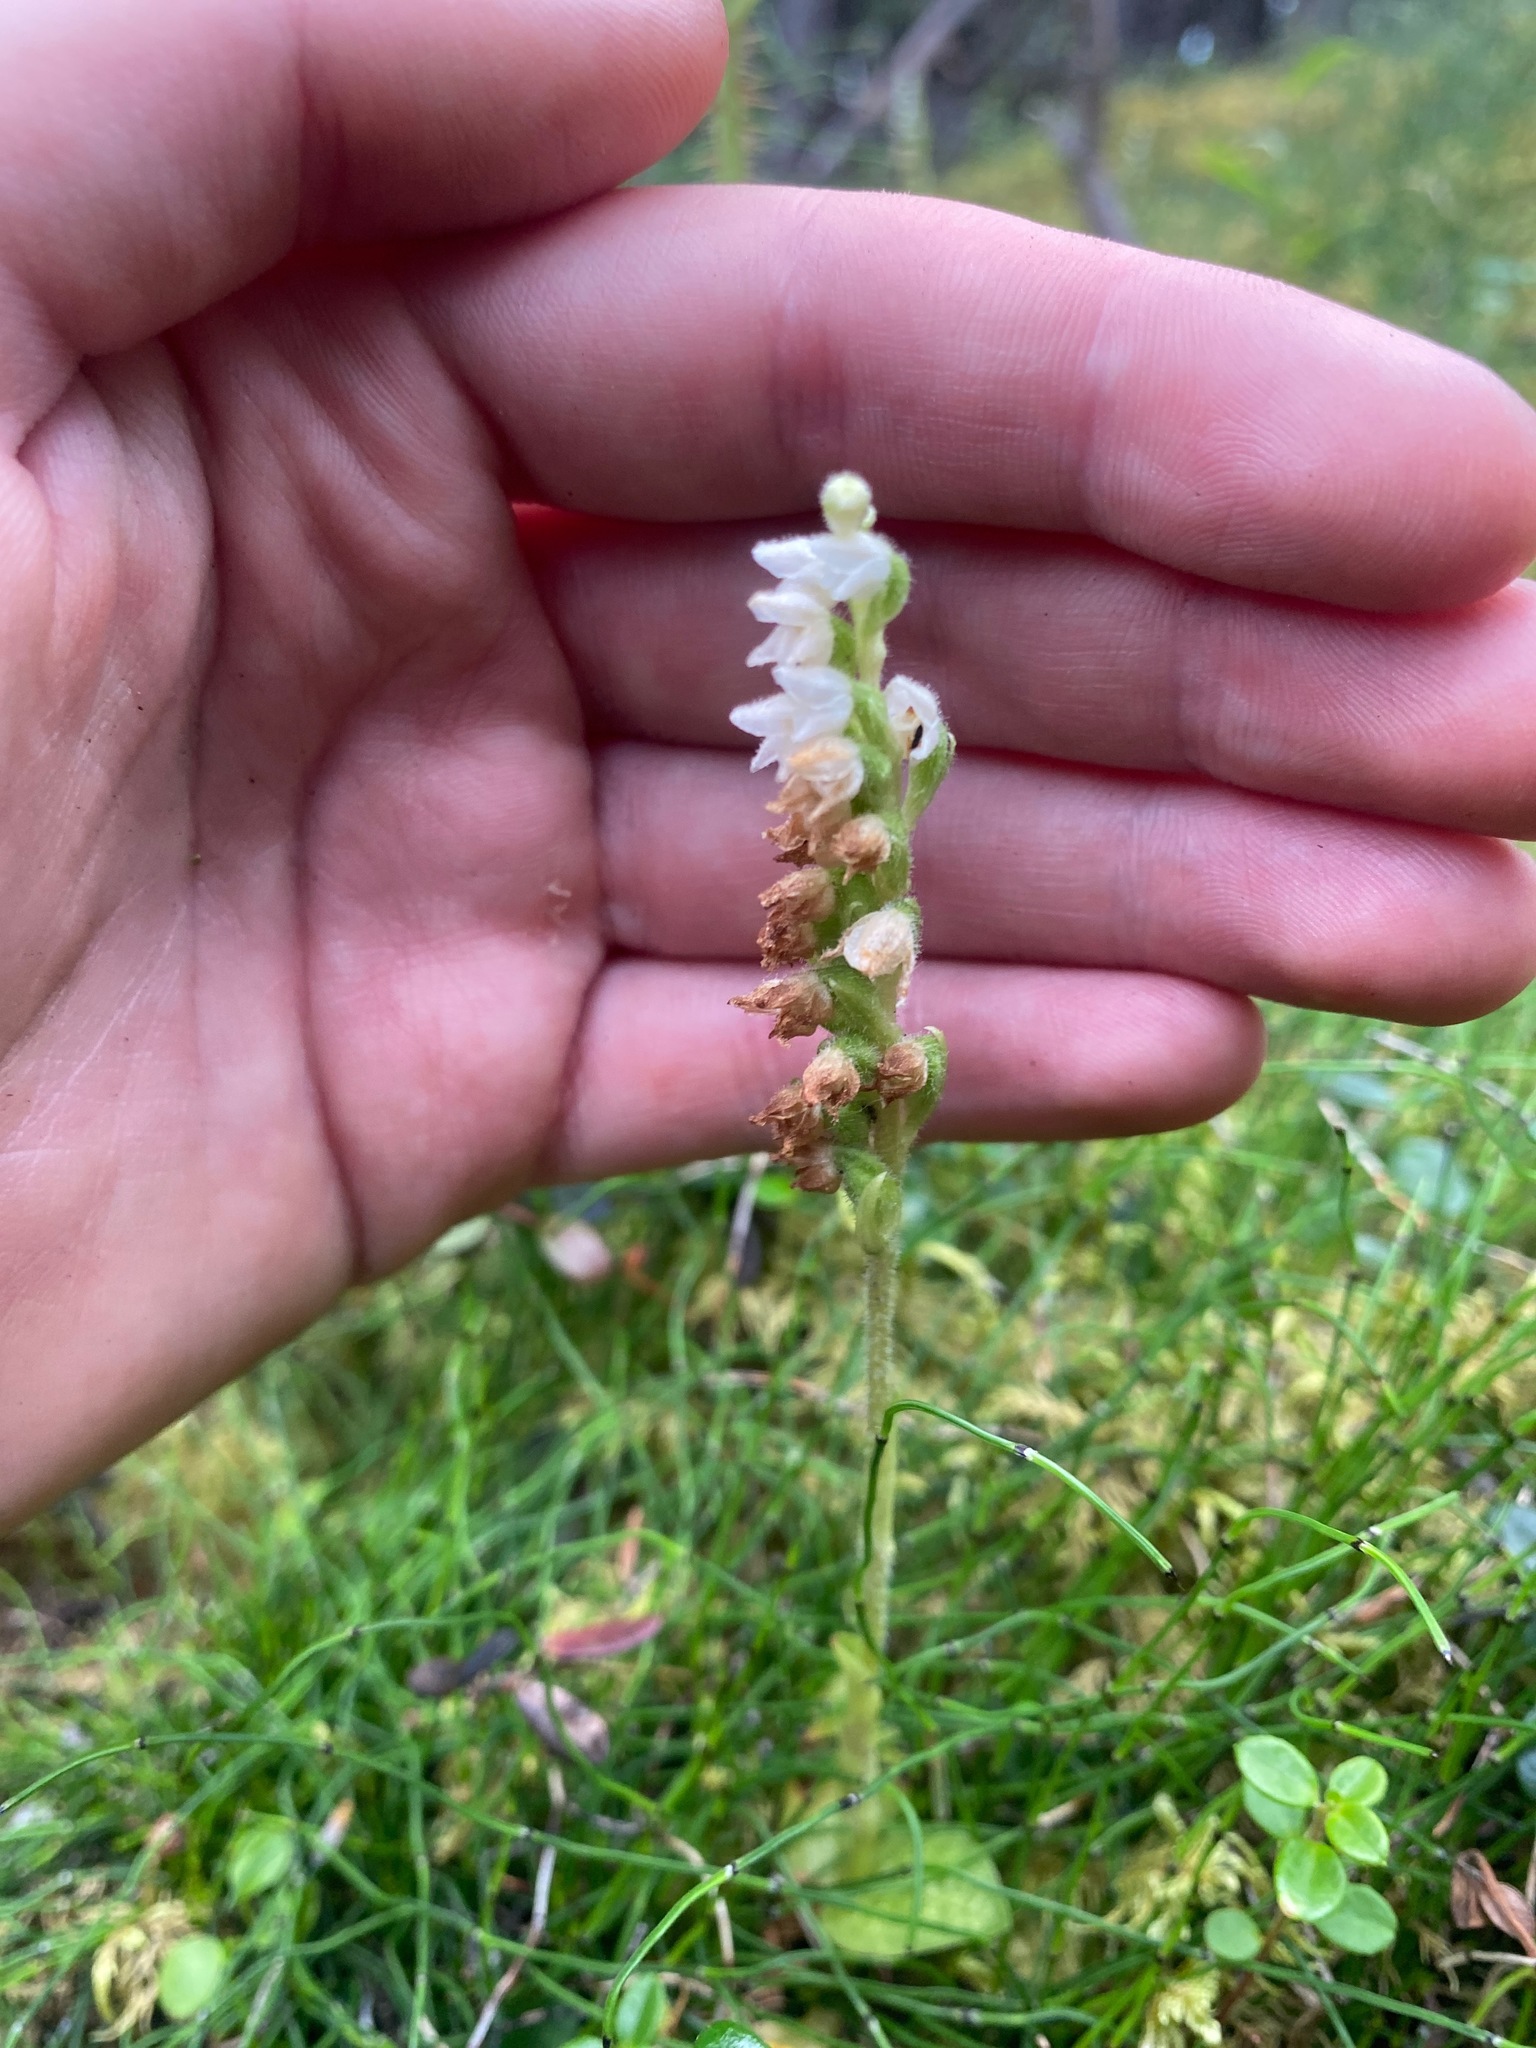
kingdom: Plantae
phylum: Tracheophyta
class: Liliopsida
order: Asparagales
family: Orchidaceae
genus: Goodyera
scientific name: Goodyera repens
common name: Creeping lady's-tresses
